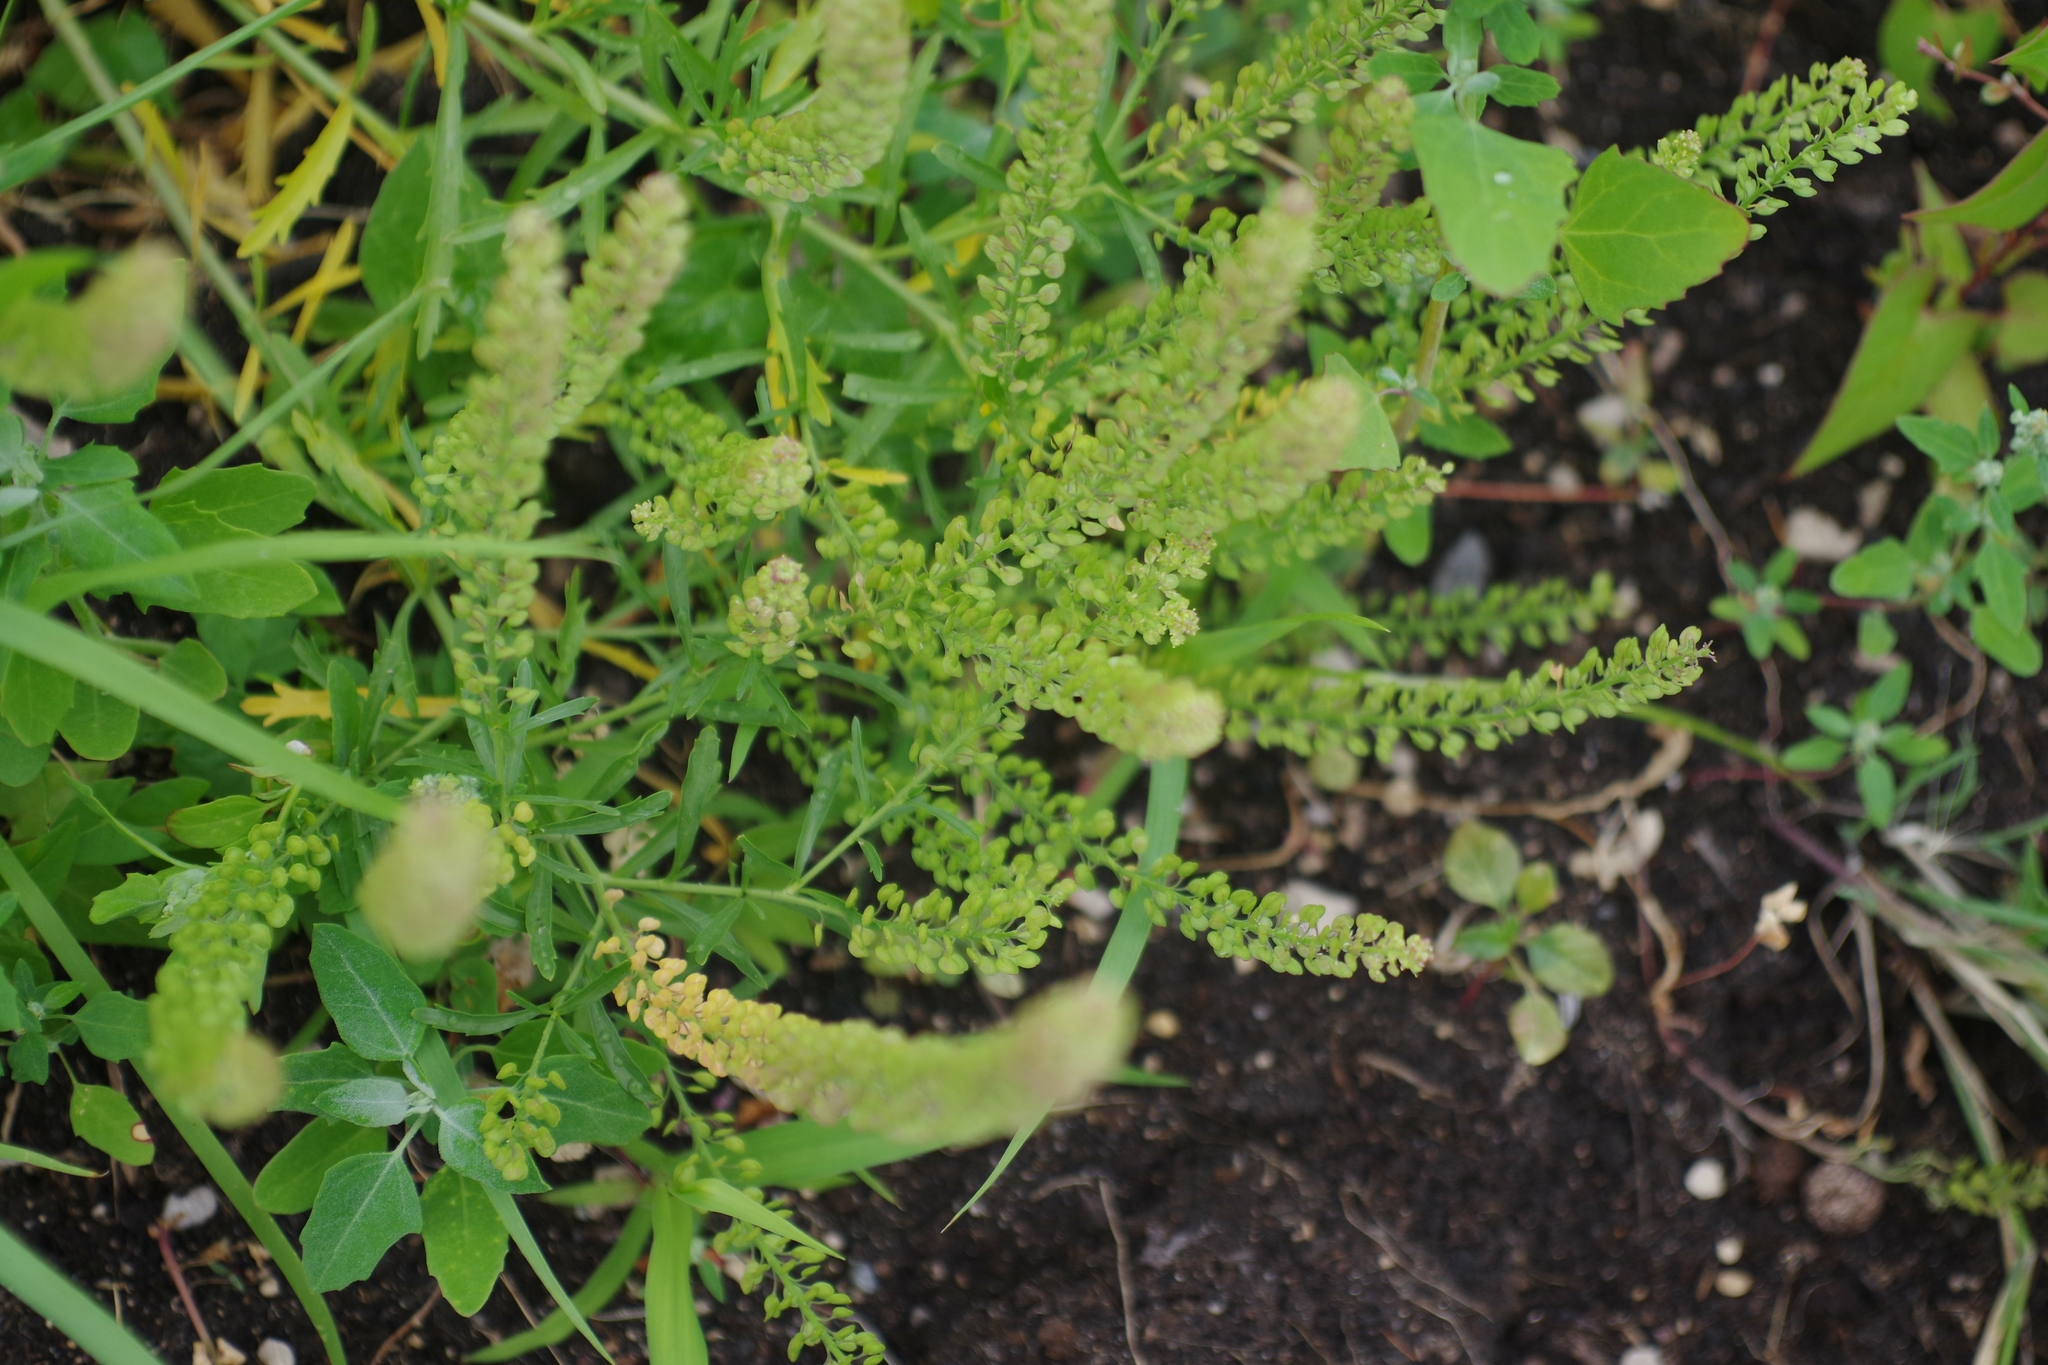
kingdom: Plantae
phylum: Tracheophyta
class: Magnoliopsida
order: Brassicales
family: Brassicaceae
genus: Lepidium
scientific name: Lepidium densiflorum
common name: Miner's pepperwort
